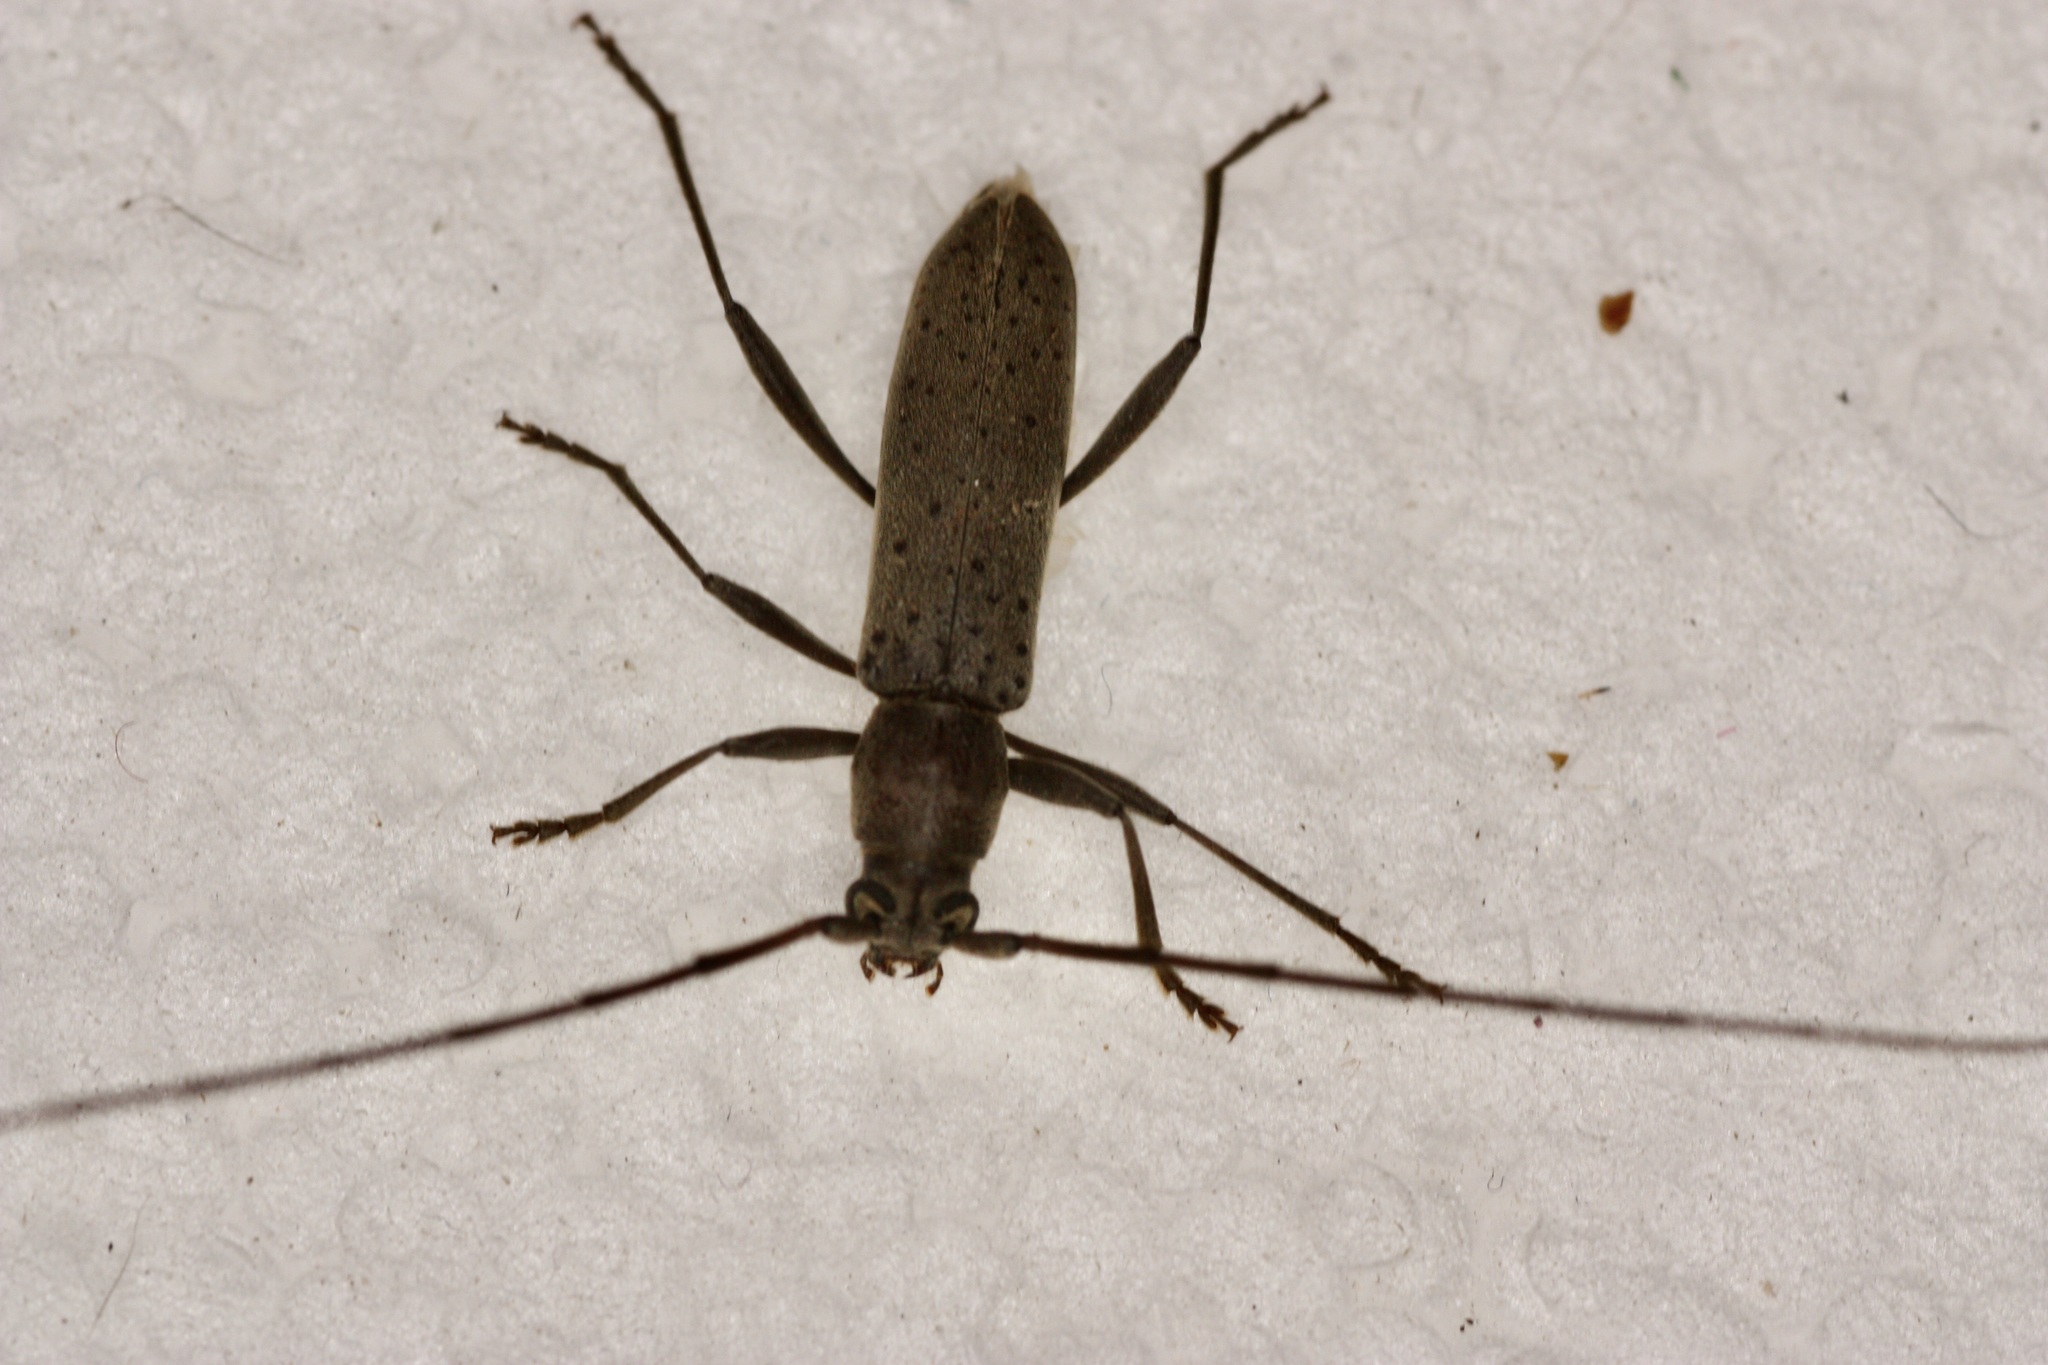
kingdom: Animalia
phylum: Arthropoda
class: Insecta
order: Coleoptera
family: Cerambycidae
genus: Osmidus
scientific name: Osmidus guttatus
